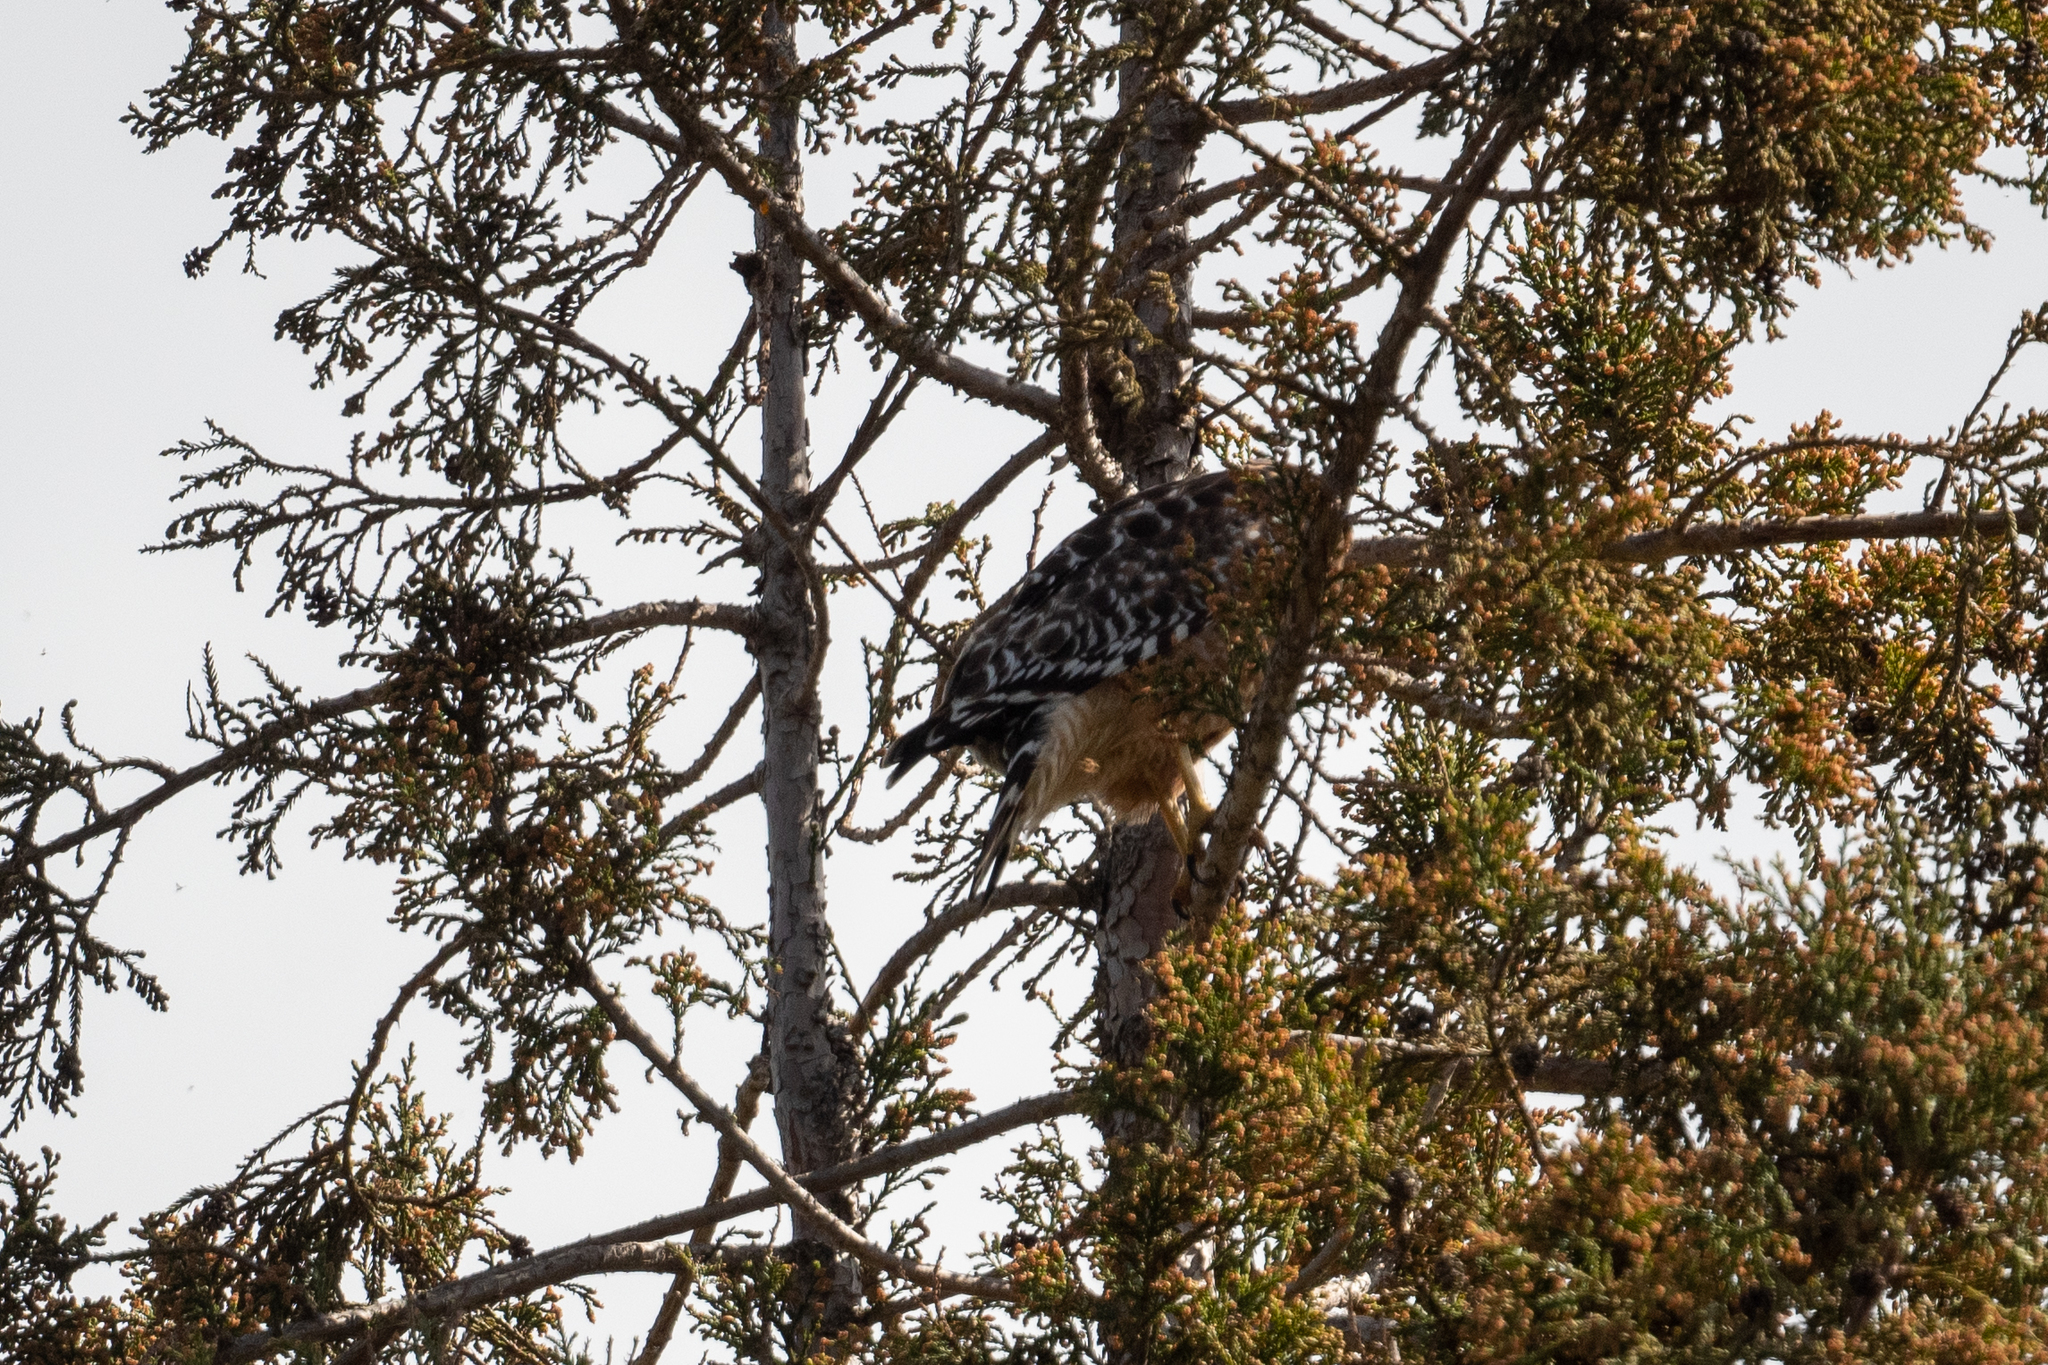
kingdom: Animalia
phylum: Chordata
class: Aves
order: Accipitriformes
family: Accipitridae
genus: Buteo
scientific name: Buteo lineatus
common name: Red-shouldered hawk
